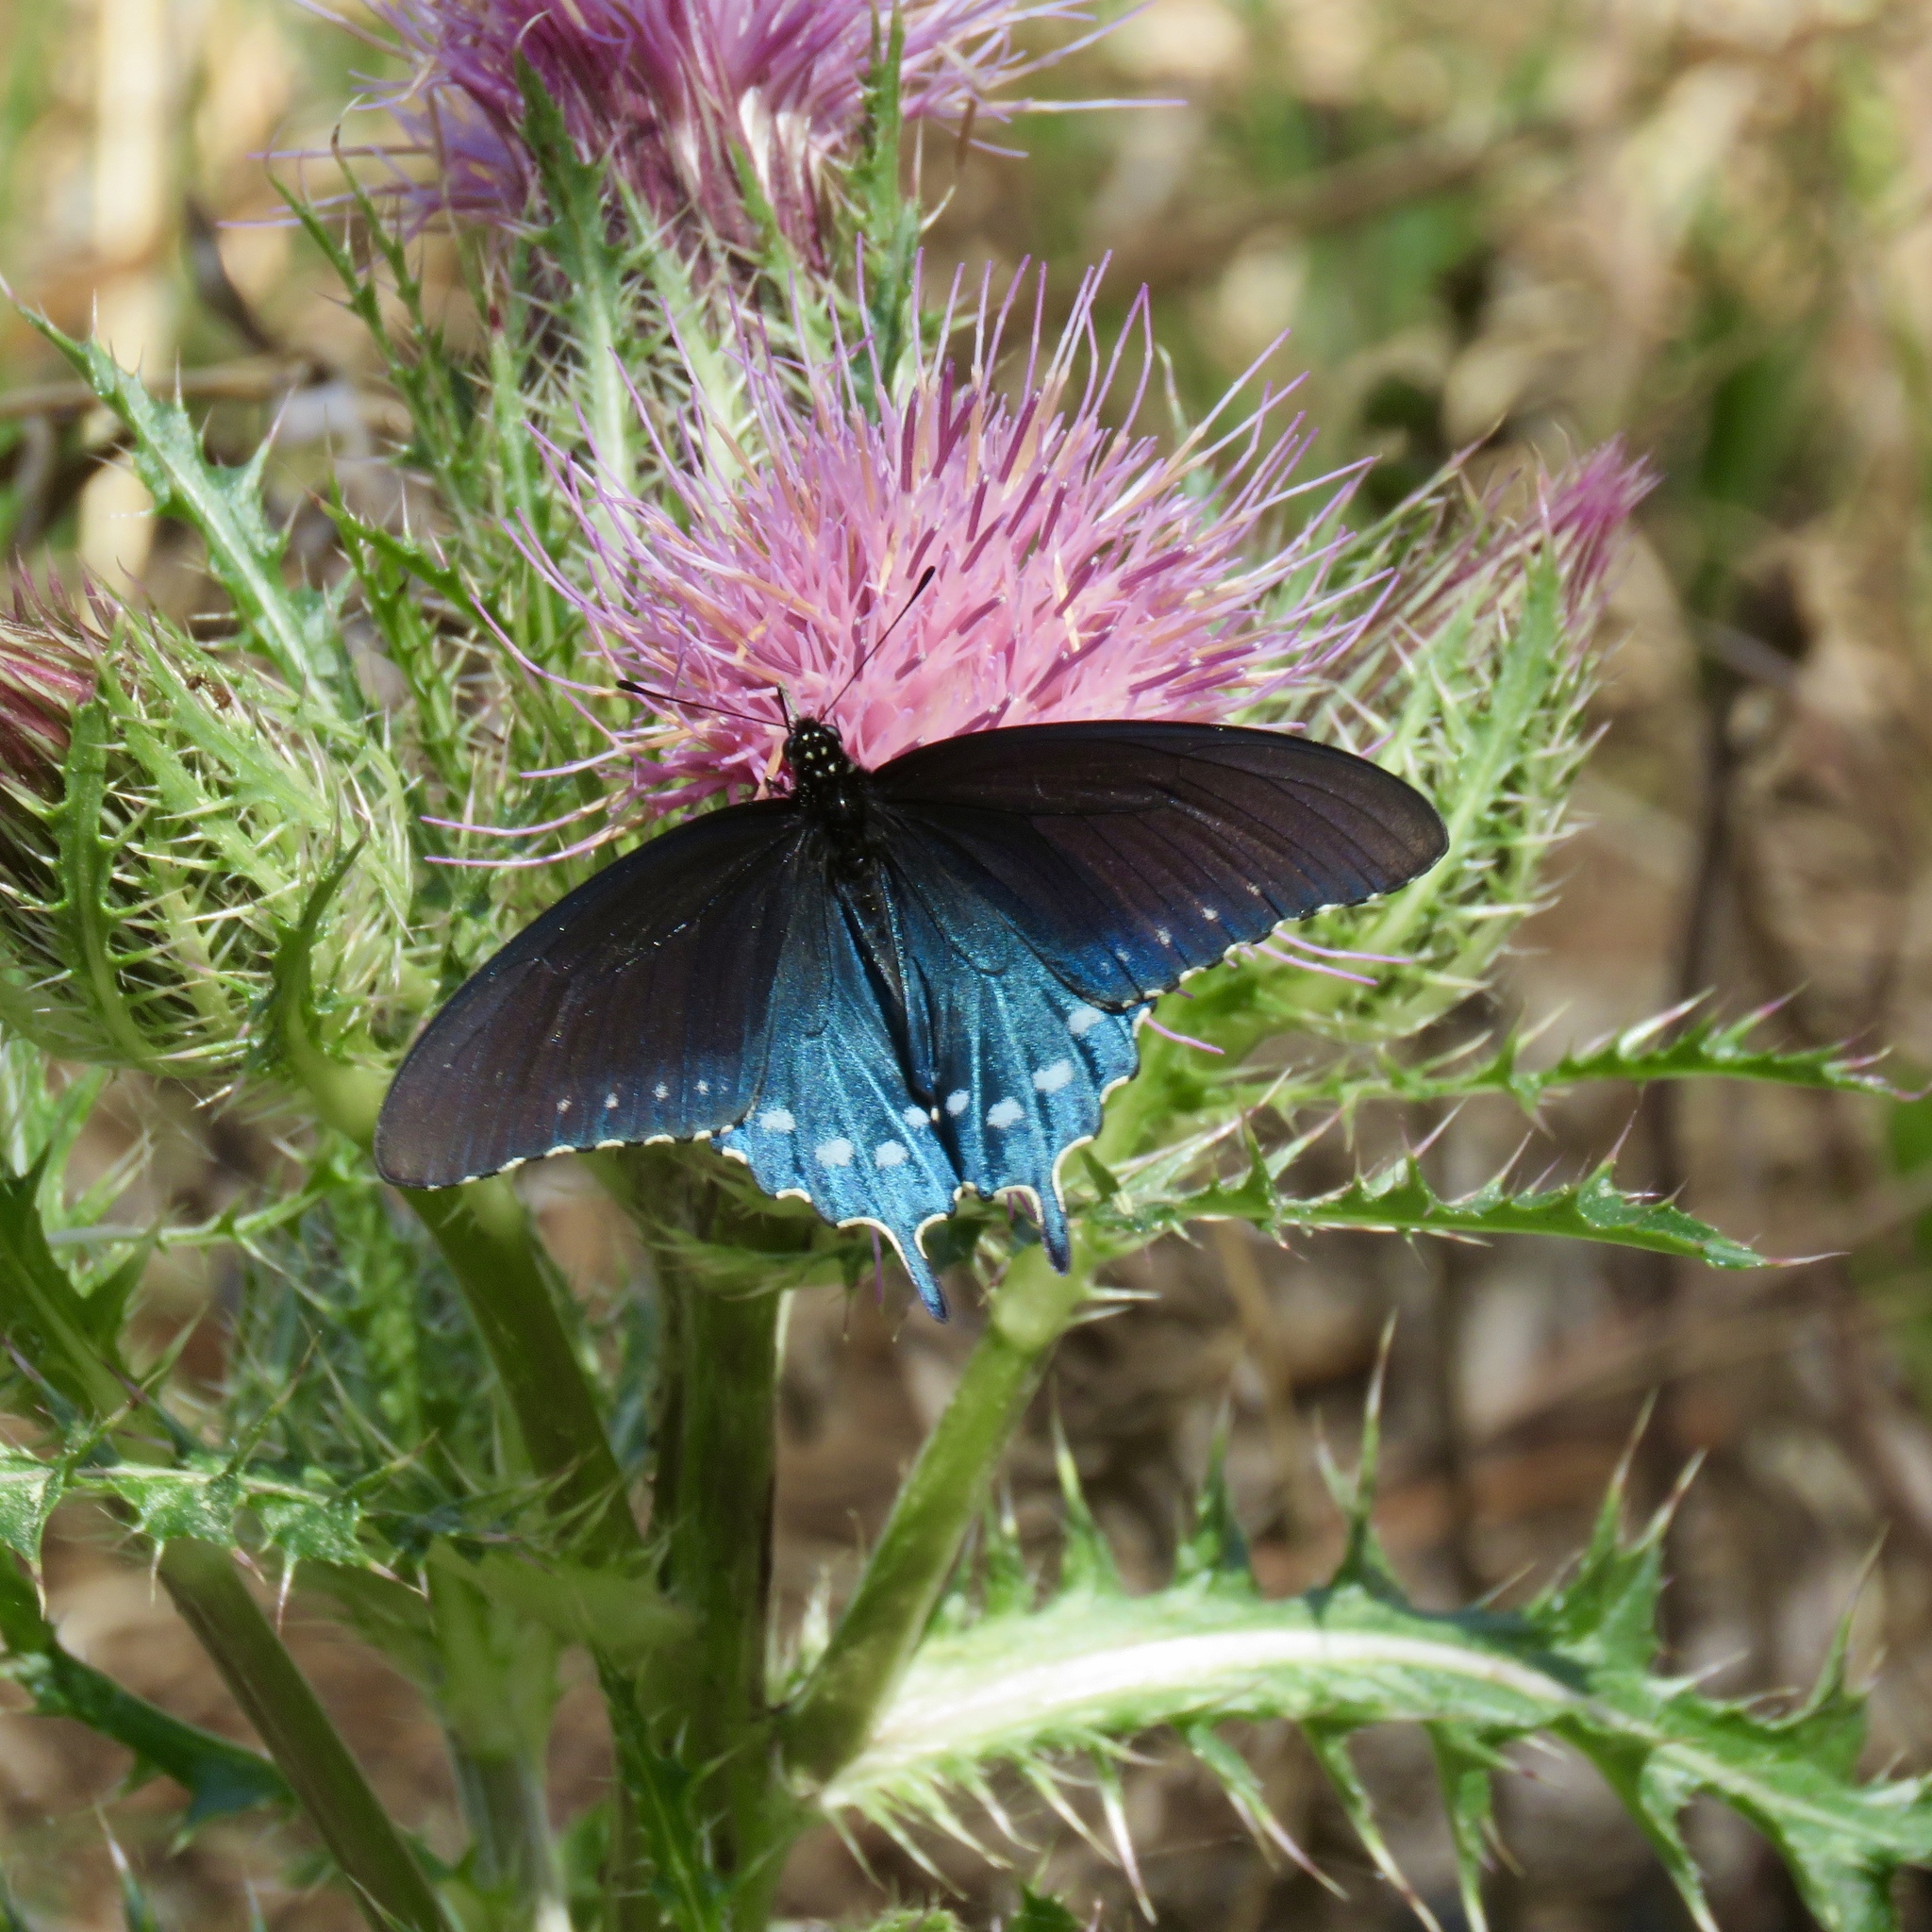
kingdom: Animalia
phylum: Arthropoda
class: Insecta
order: Lepidoptera
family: Papilionidae
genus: Battus
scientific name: Battus philenor
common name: Pipevine swallowtail
